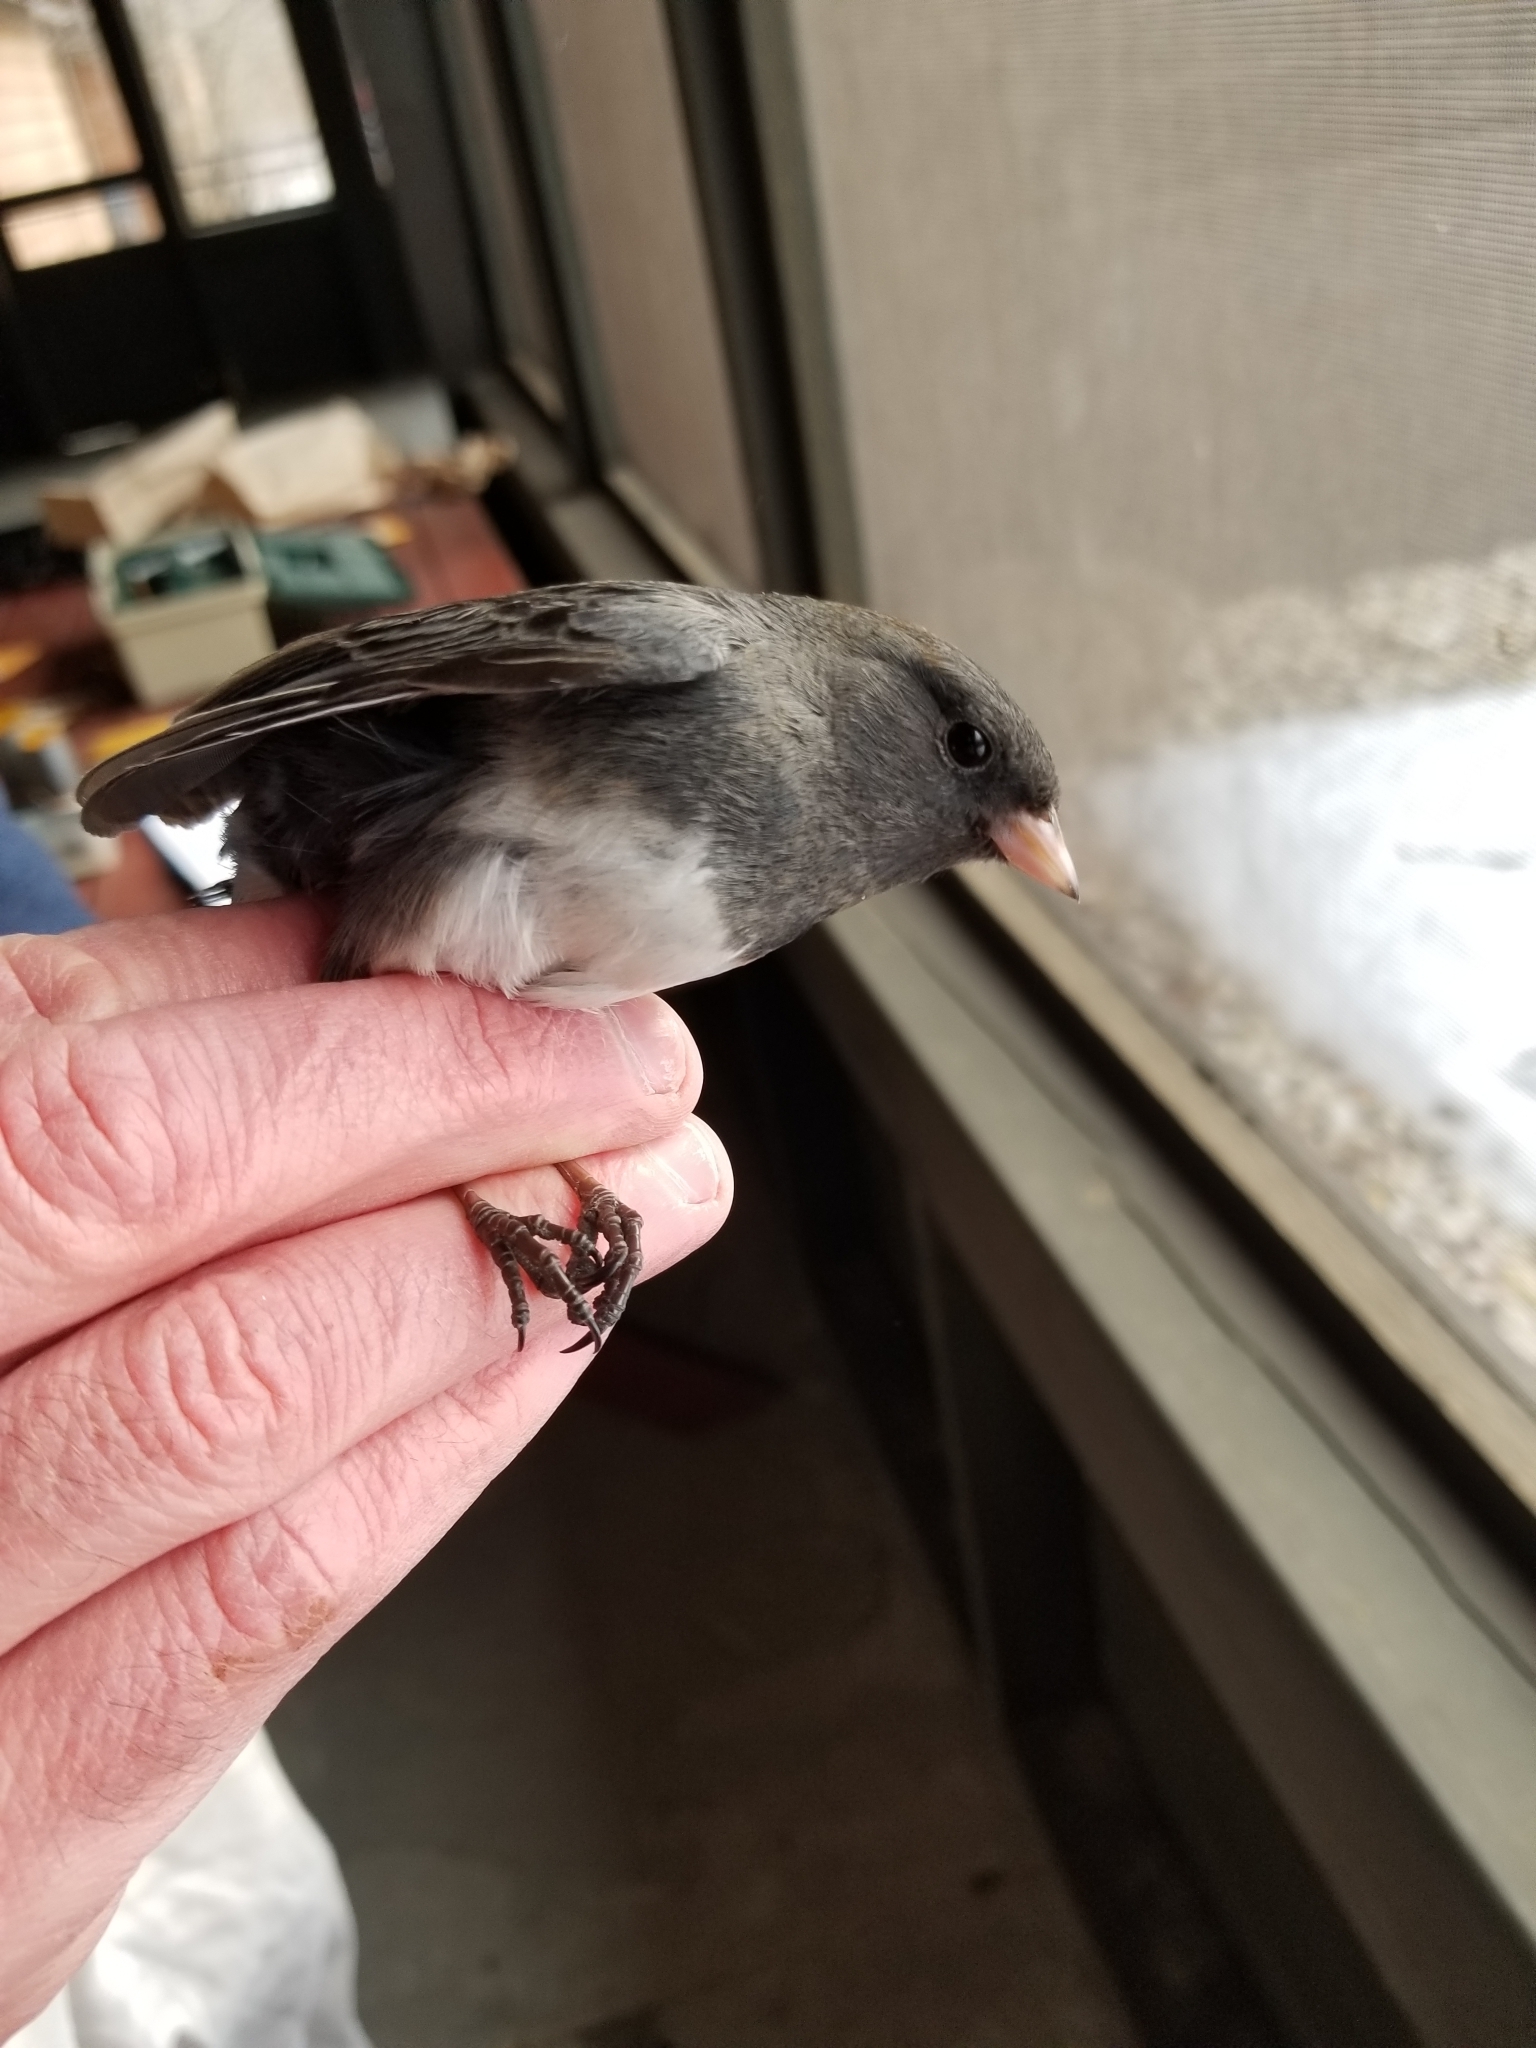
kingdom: Animalia
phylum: Chordata
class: Aves
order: Passeriformes
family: Passerellidae
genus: Junco
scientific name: Junco hyemalis
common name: Dark-eyed junco
